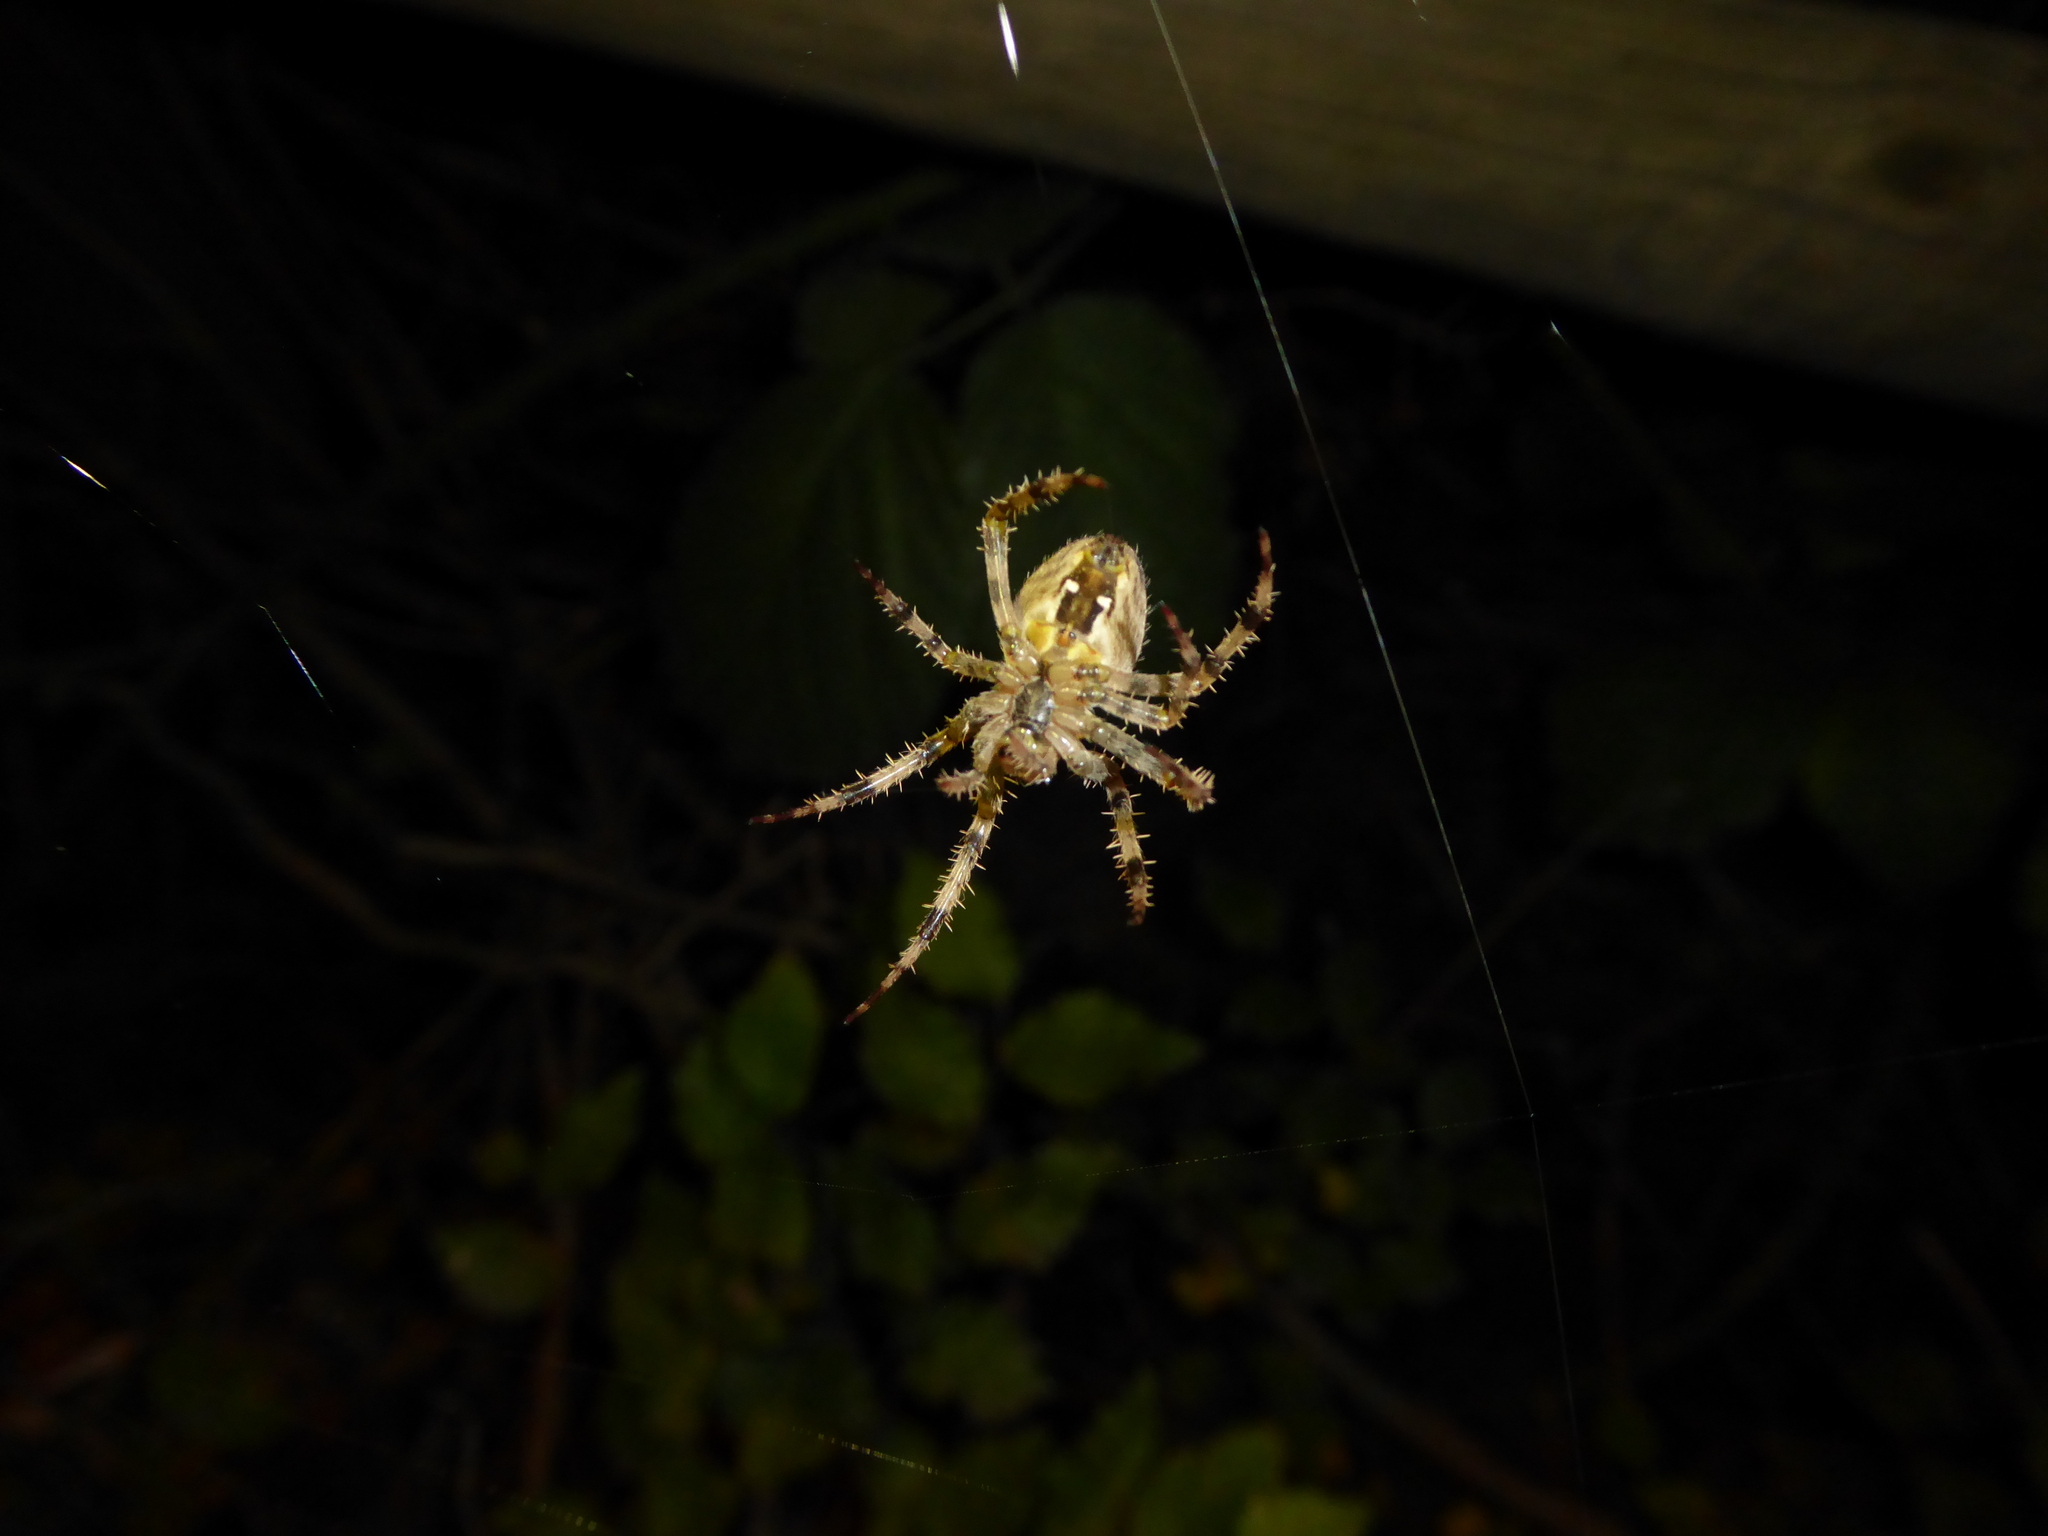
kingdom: Animalia
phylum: Arthropoda
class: Arachnida
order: Araneae
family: Araneidae
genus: Araneus
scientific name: Araneus diadematus
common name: Cross orbweaver
